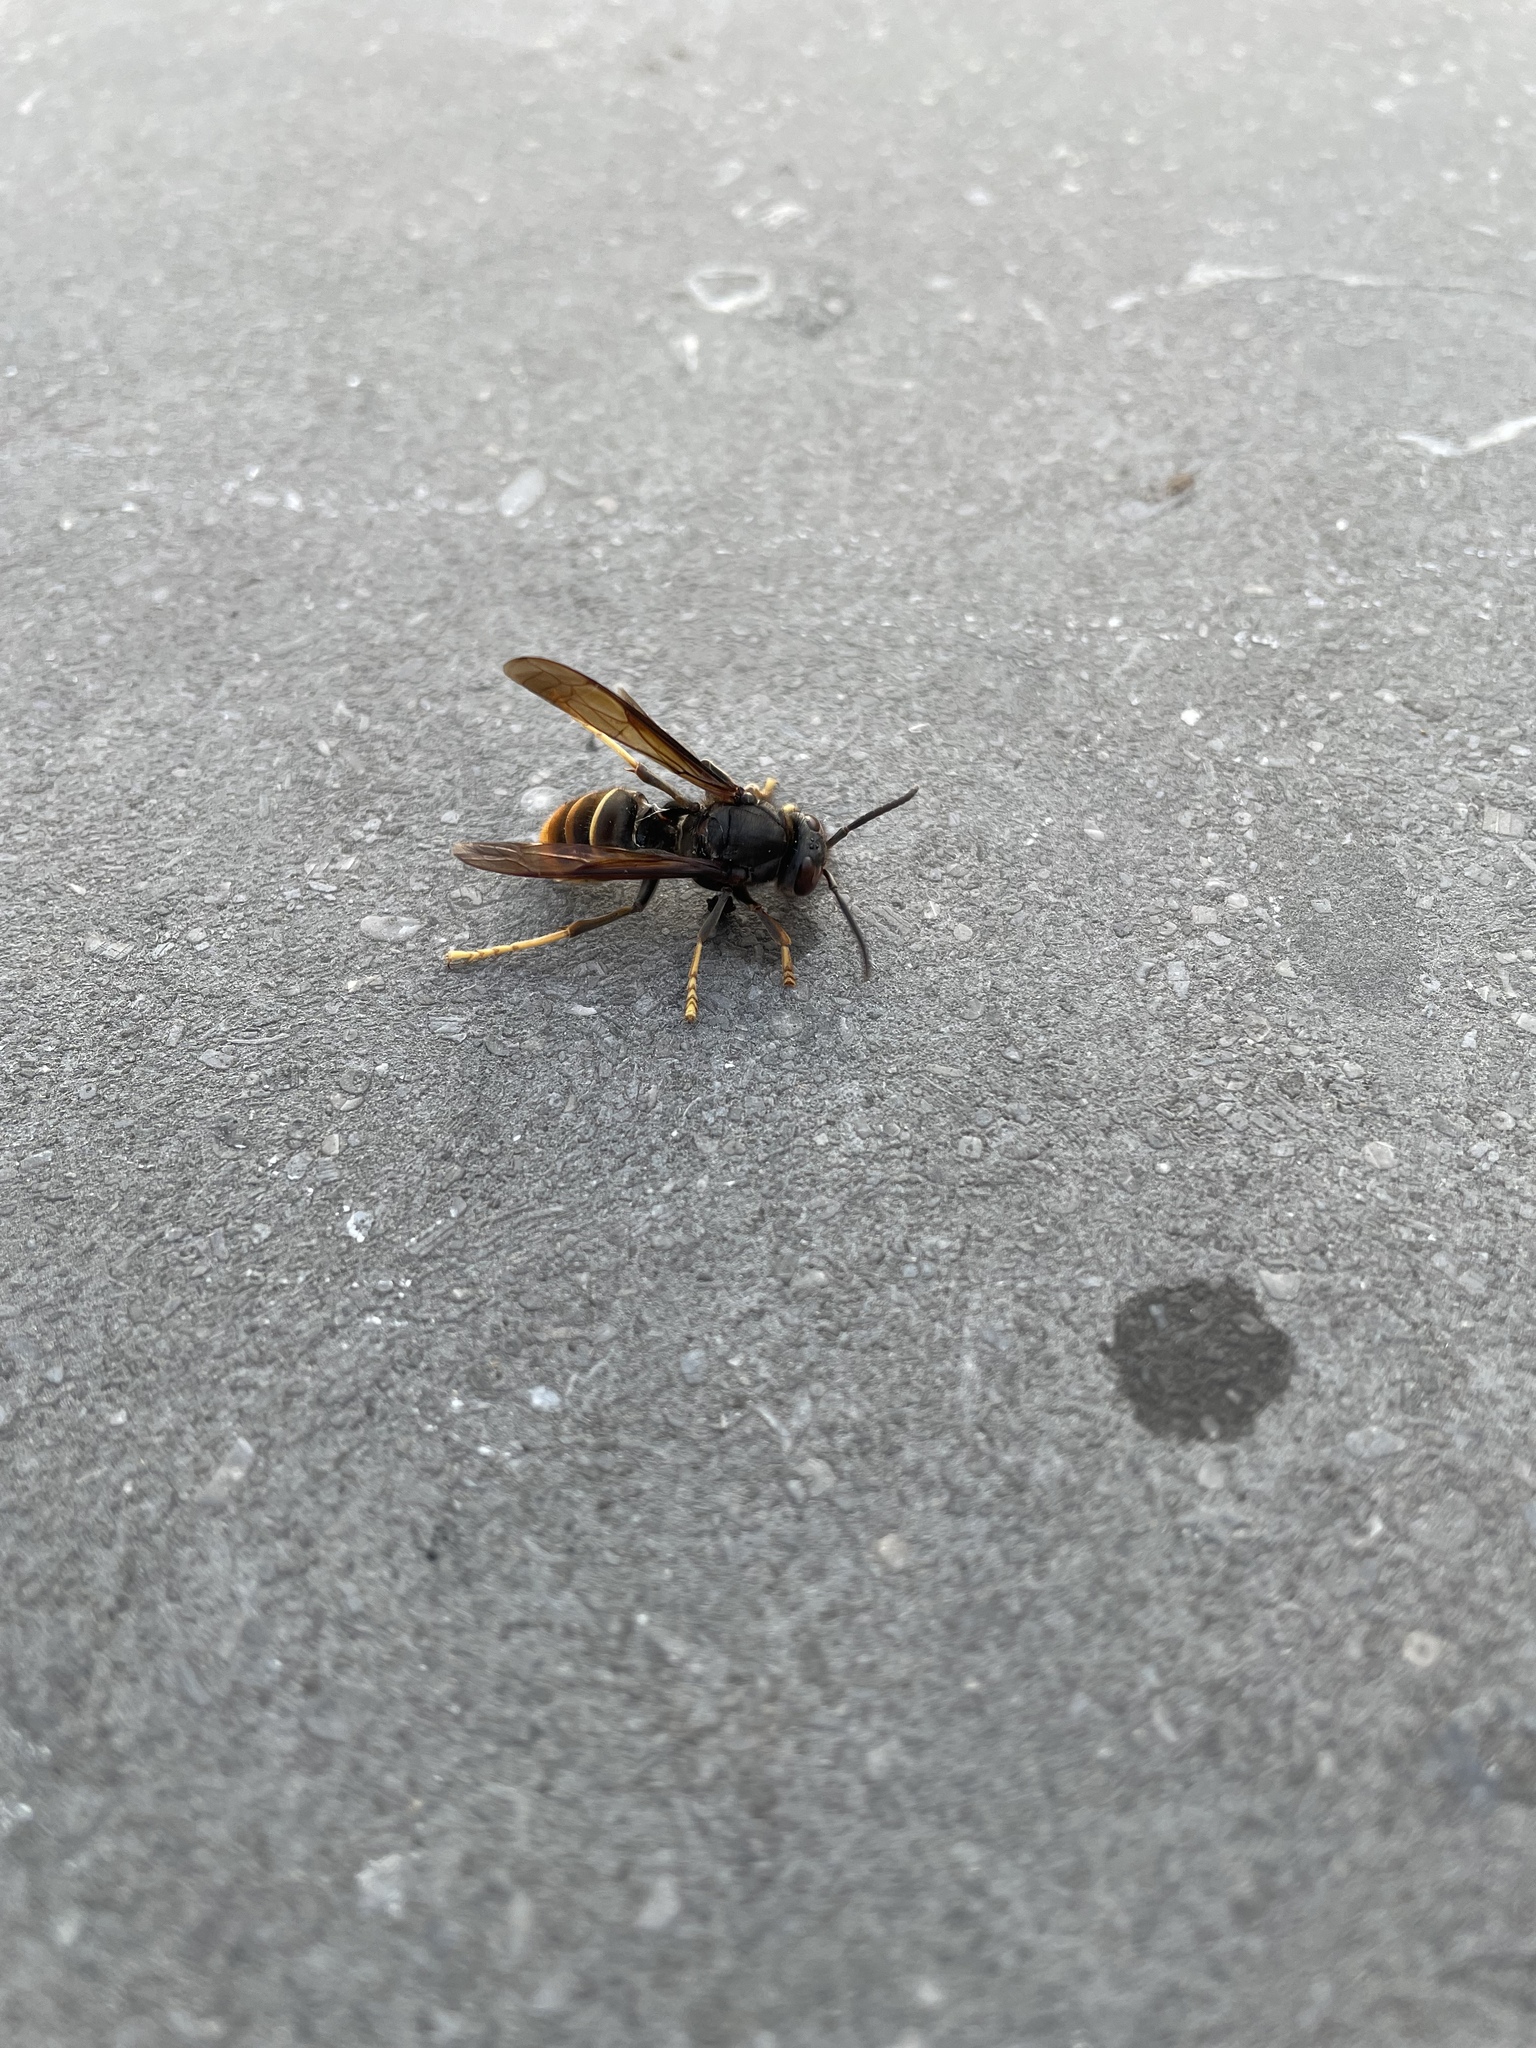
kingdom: Animalia
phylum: Arthropoda
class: Insecta
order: Hymenoptera
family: Vespidae
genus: Vespa
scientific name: Vespa velutina
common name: Asian hornet
